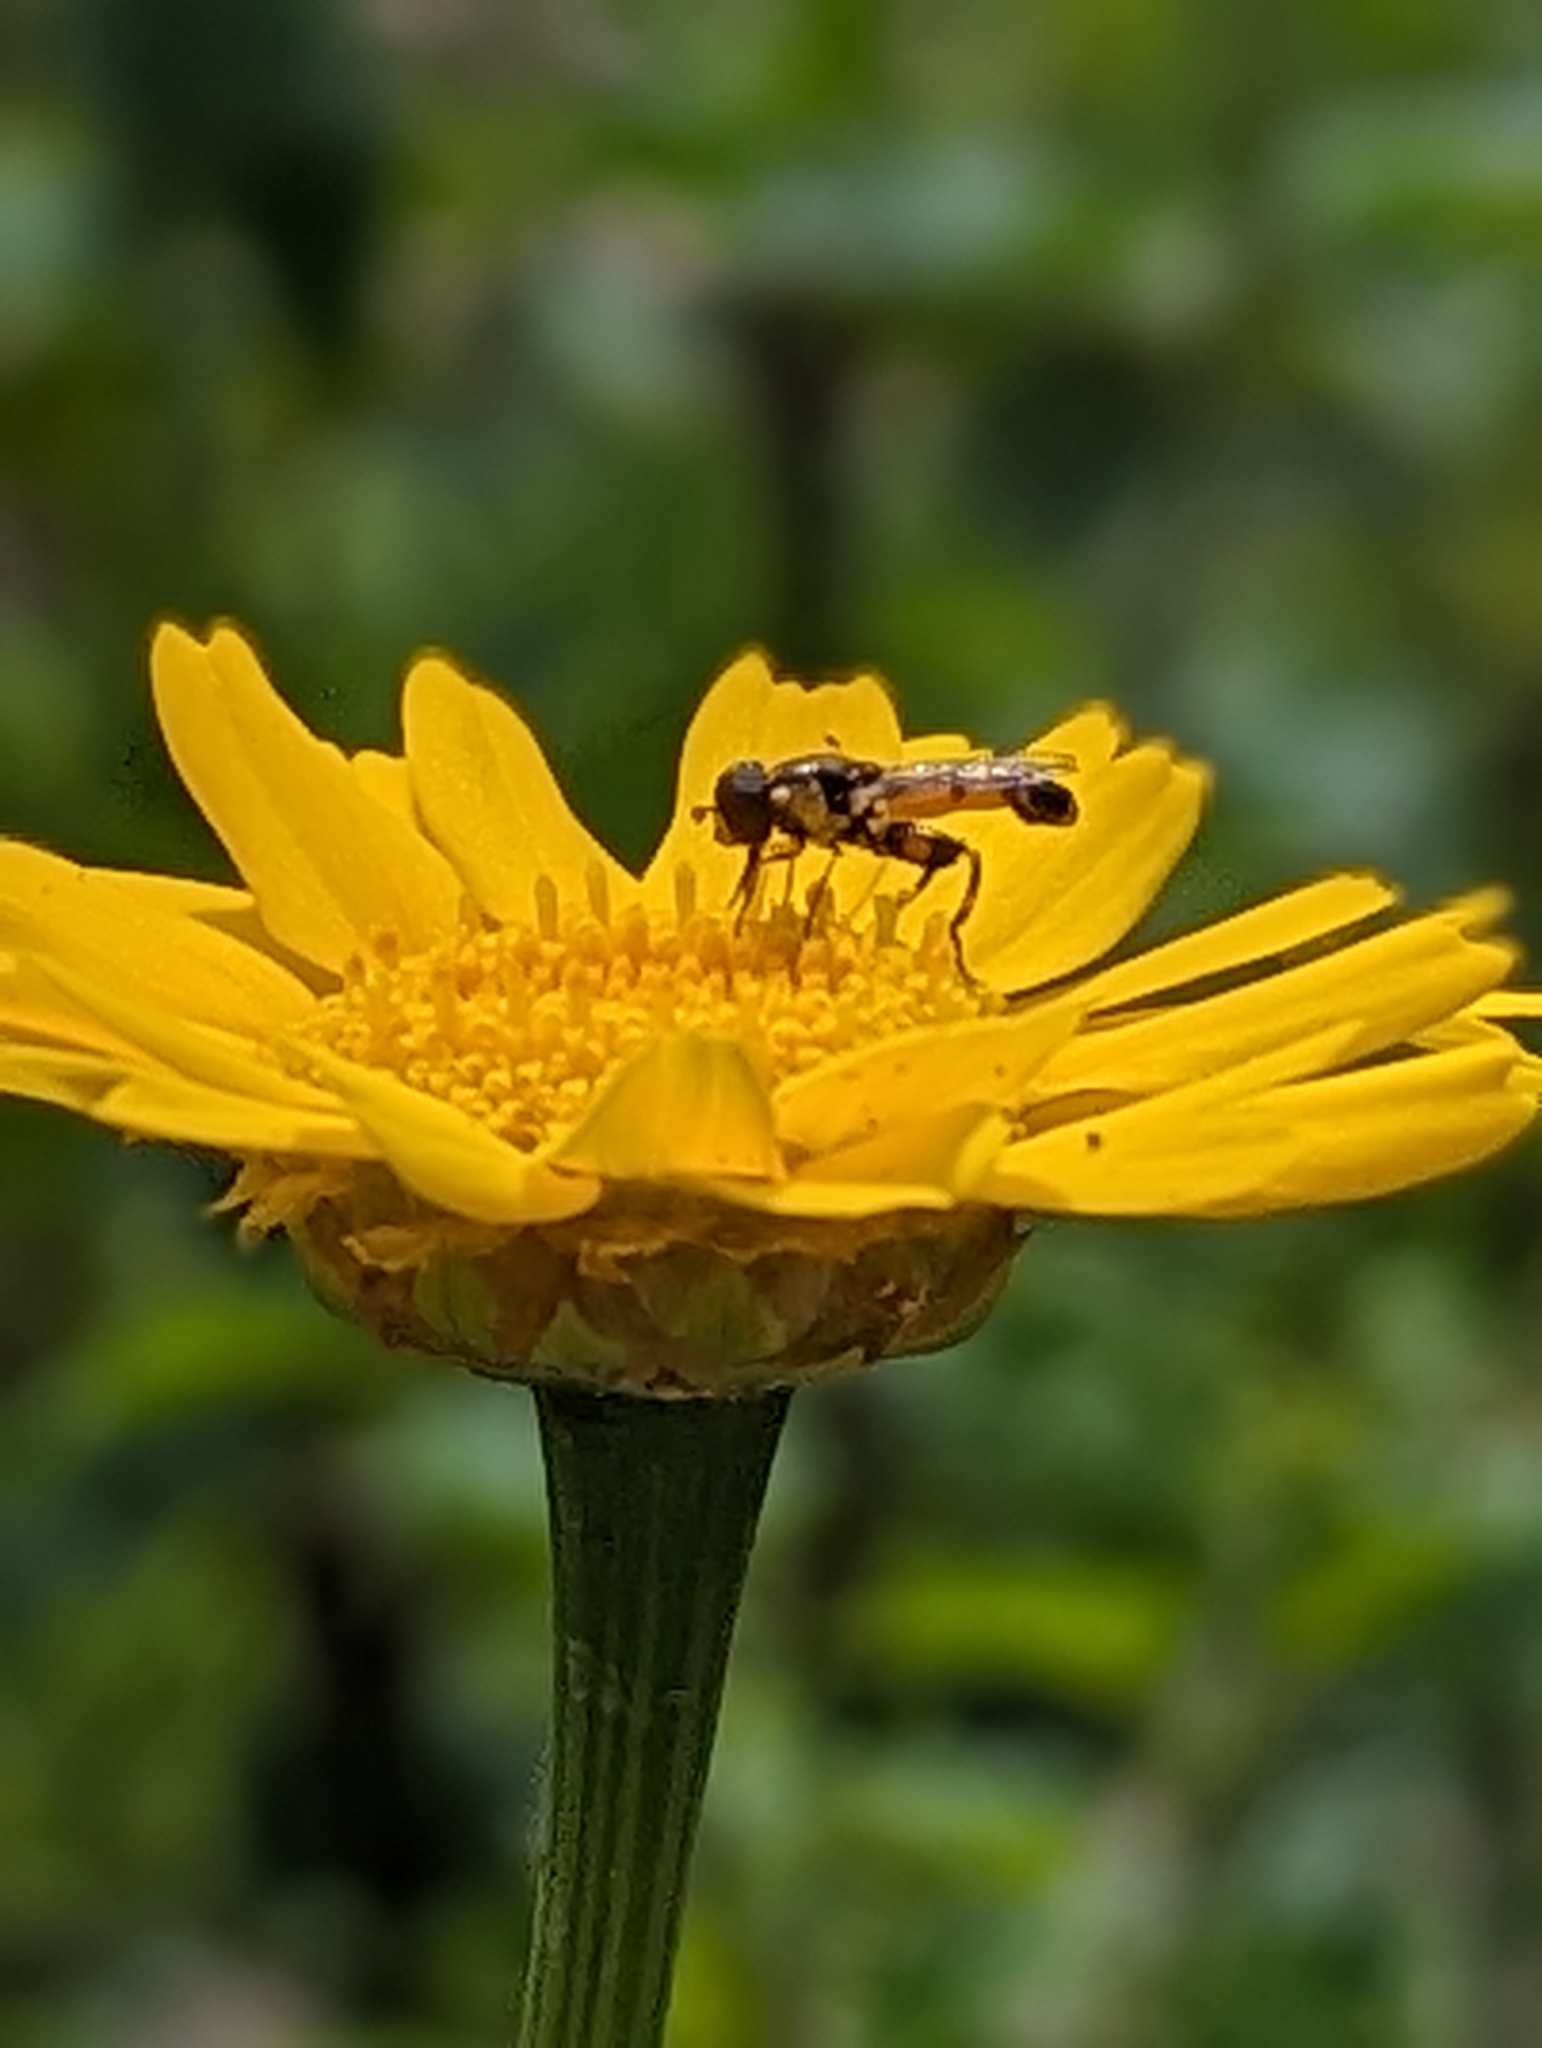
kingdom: Animalia
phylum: Arthropoda
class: Insecta
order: Diptera
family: Syrphidae
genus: Syritta
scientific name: Syritta pipiens
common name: Hover fly
